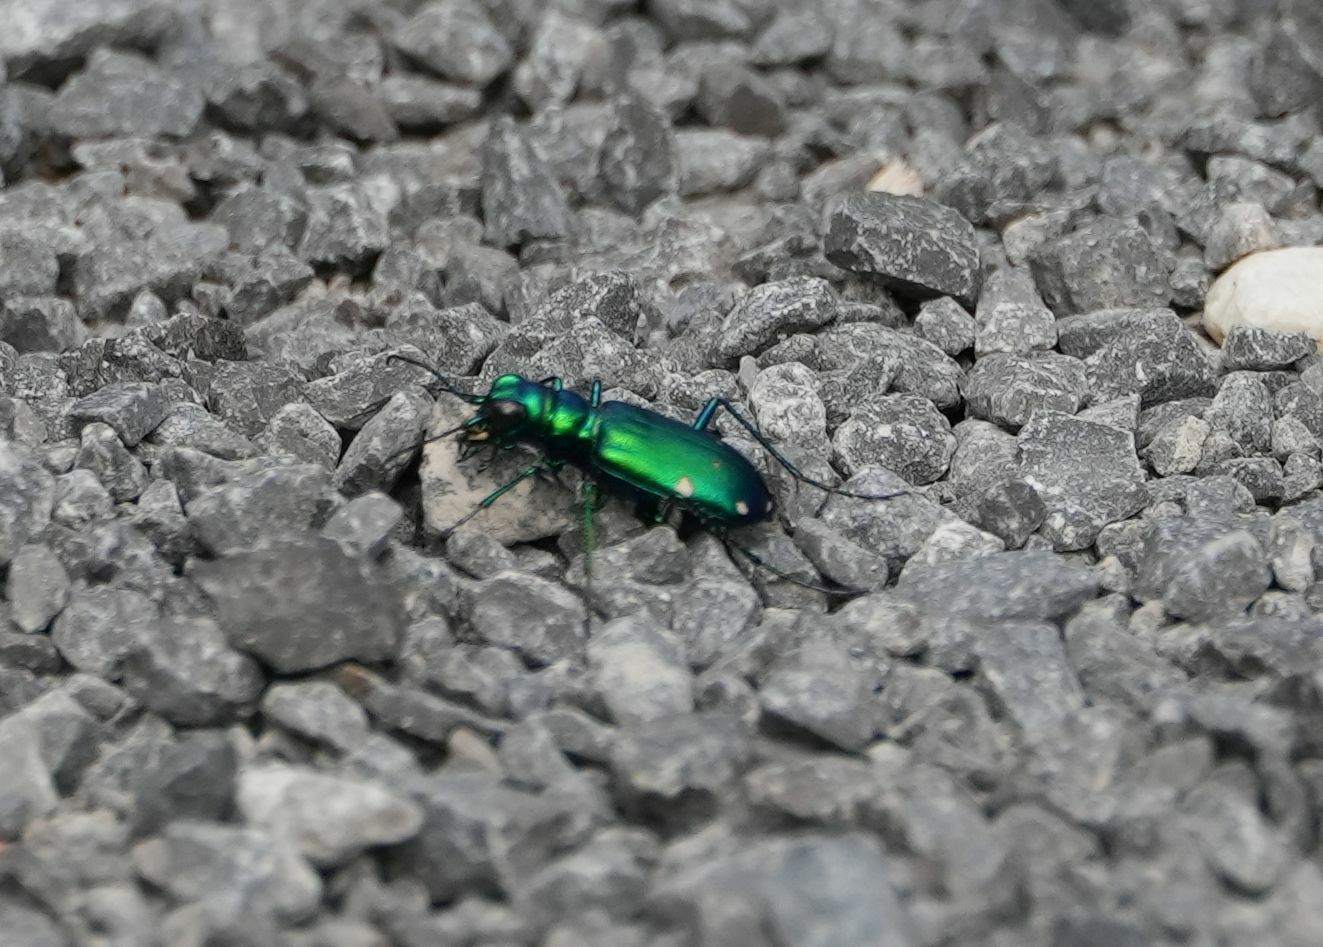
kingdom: Animalia
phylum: Arthropoda
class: Insecta
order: Coleoptera
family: Carabidae
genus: Cicindela
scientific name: Cicindela sexguttata
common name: Six-spotted tiger beetle
